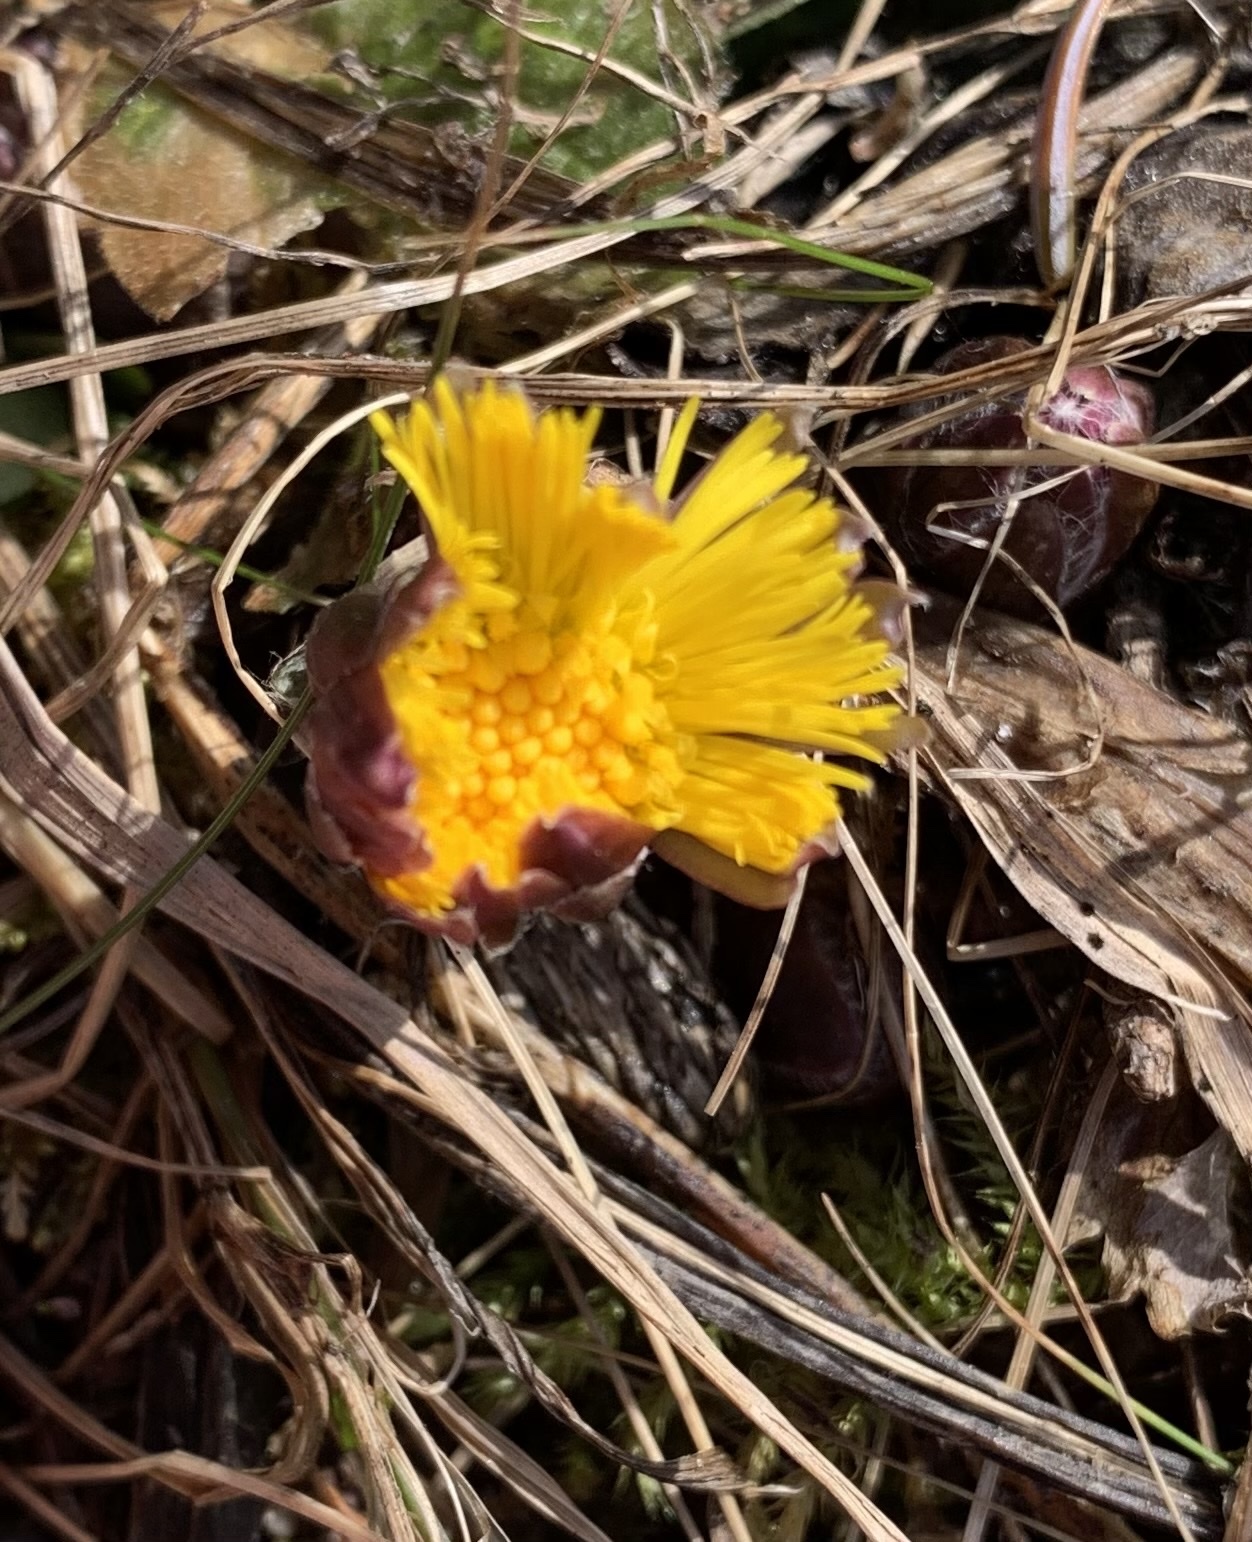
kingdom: Plantae
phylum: Tracheophyta
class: Magnoliopsida
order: Asterales
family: Asteraceae
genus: Tussilago
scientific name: Tussilago farfara
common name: Coltsfoot
